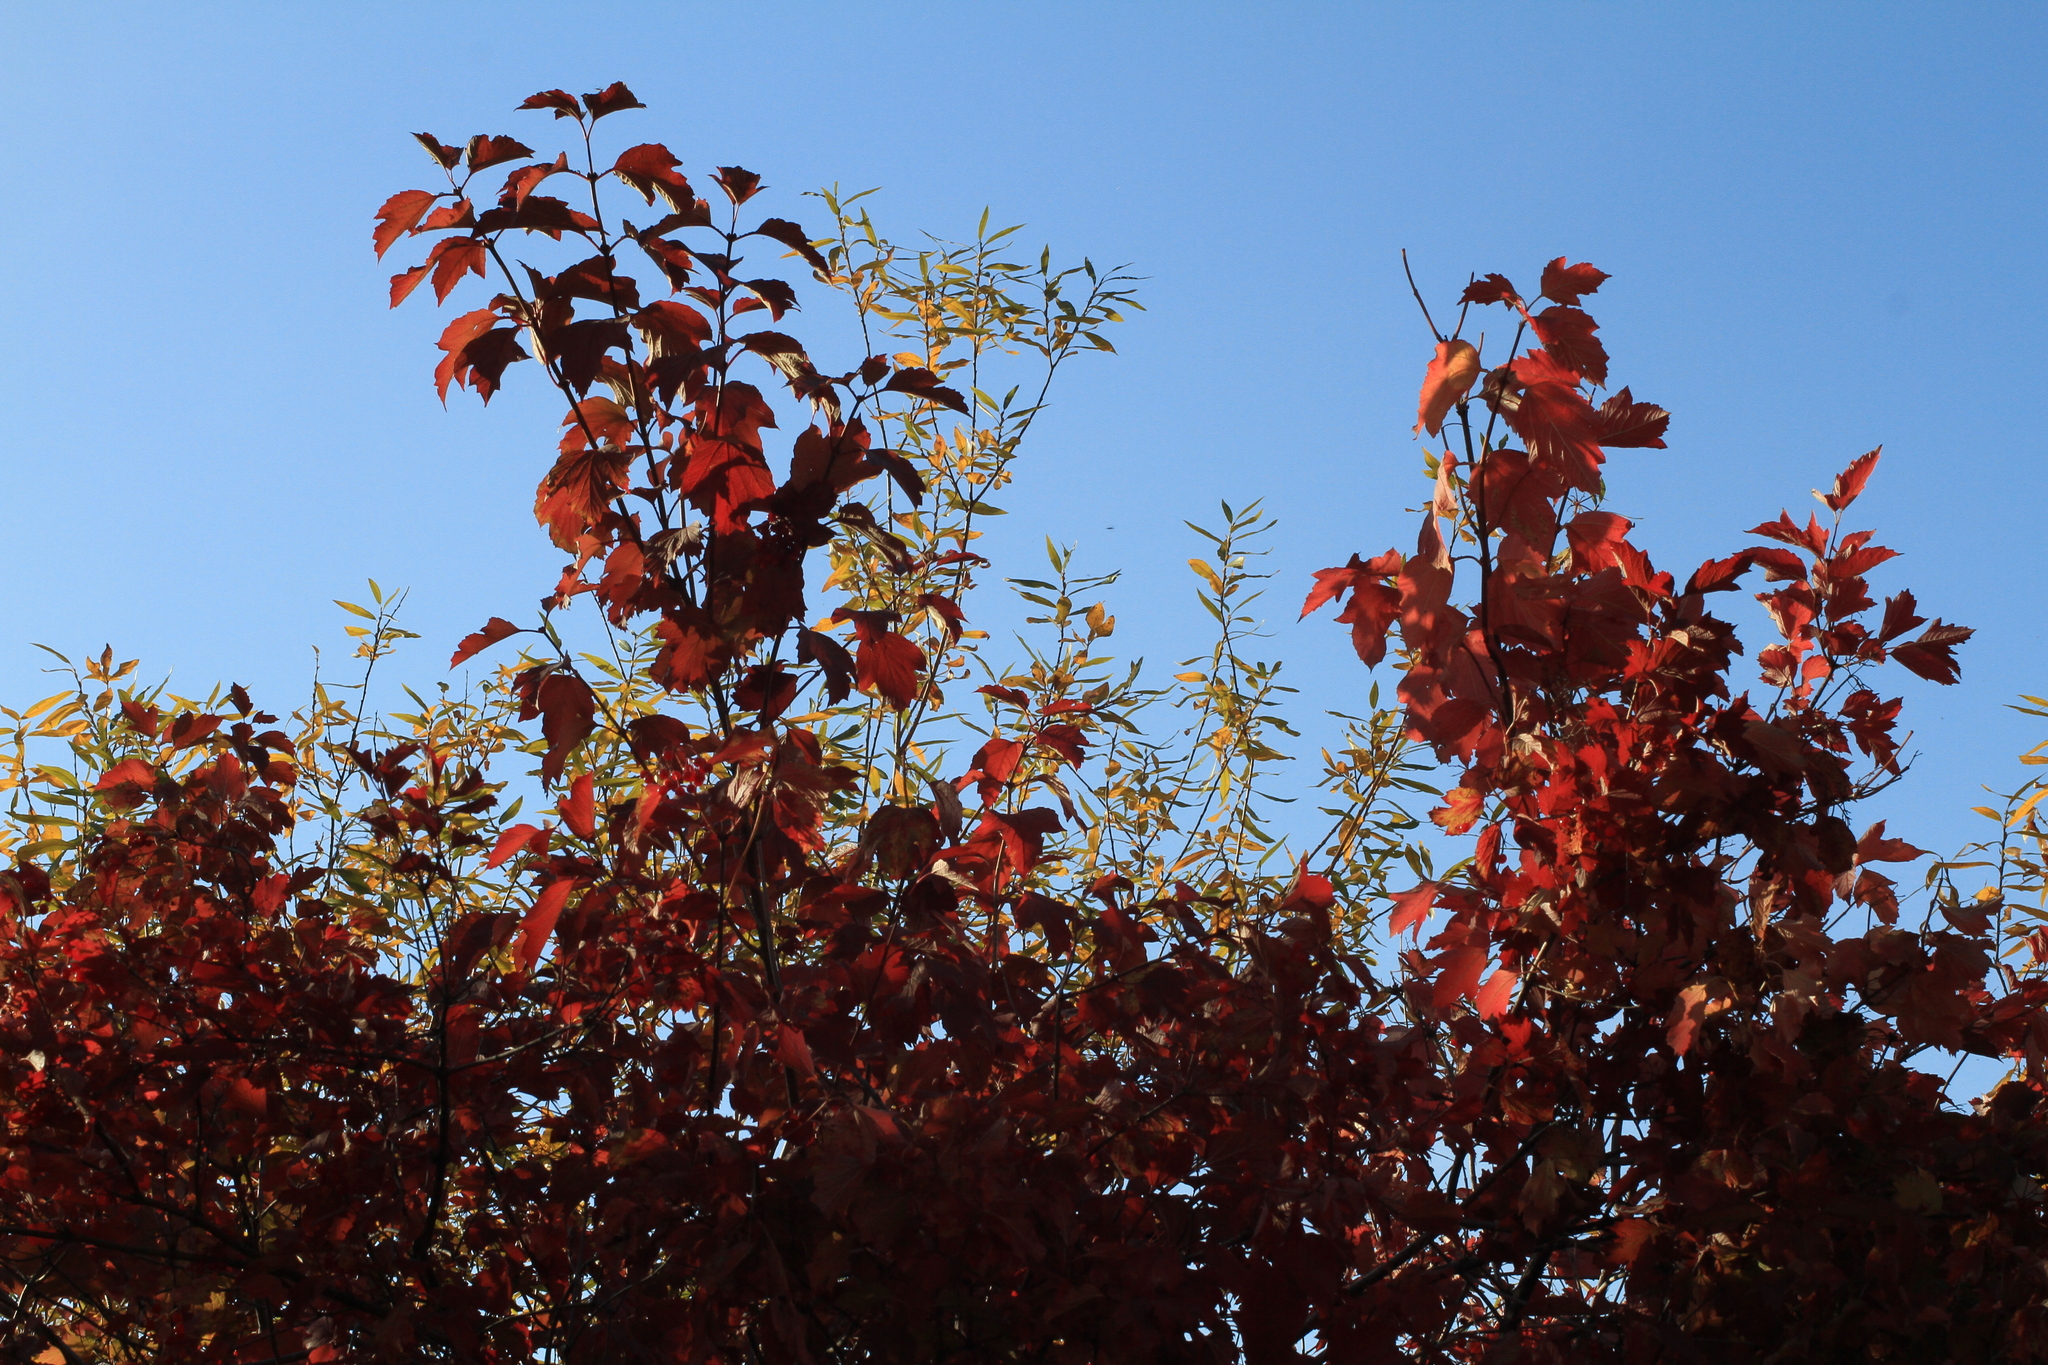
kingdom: Plantae
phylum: Tracheophyta
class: Magnoliopsida
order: Dipsacales
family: Viburnaceae
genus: Viburnum
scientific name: Viburnum opulus
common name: Guelder-rose
